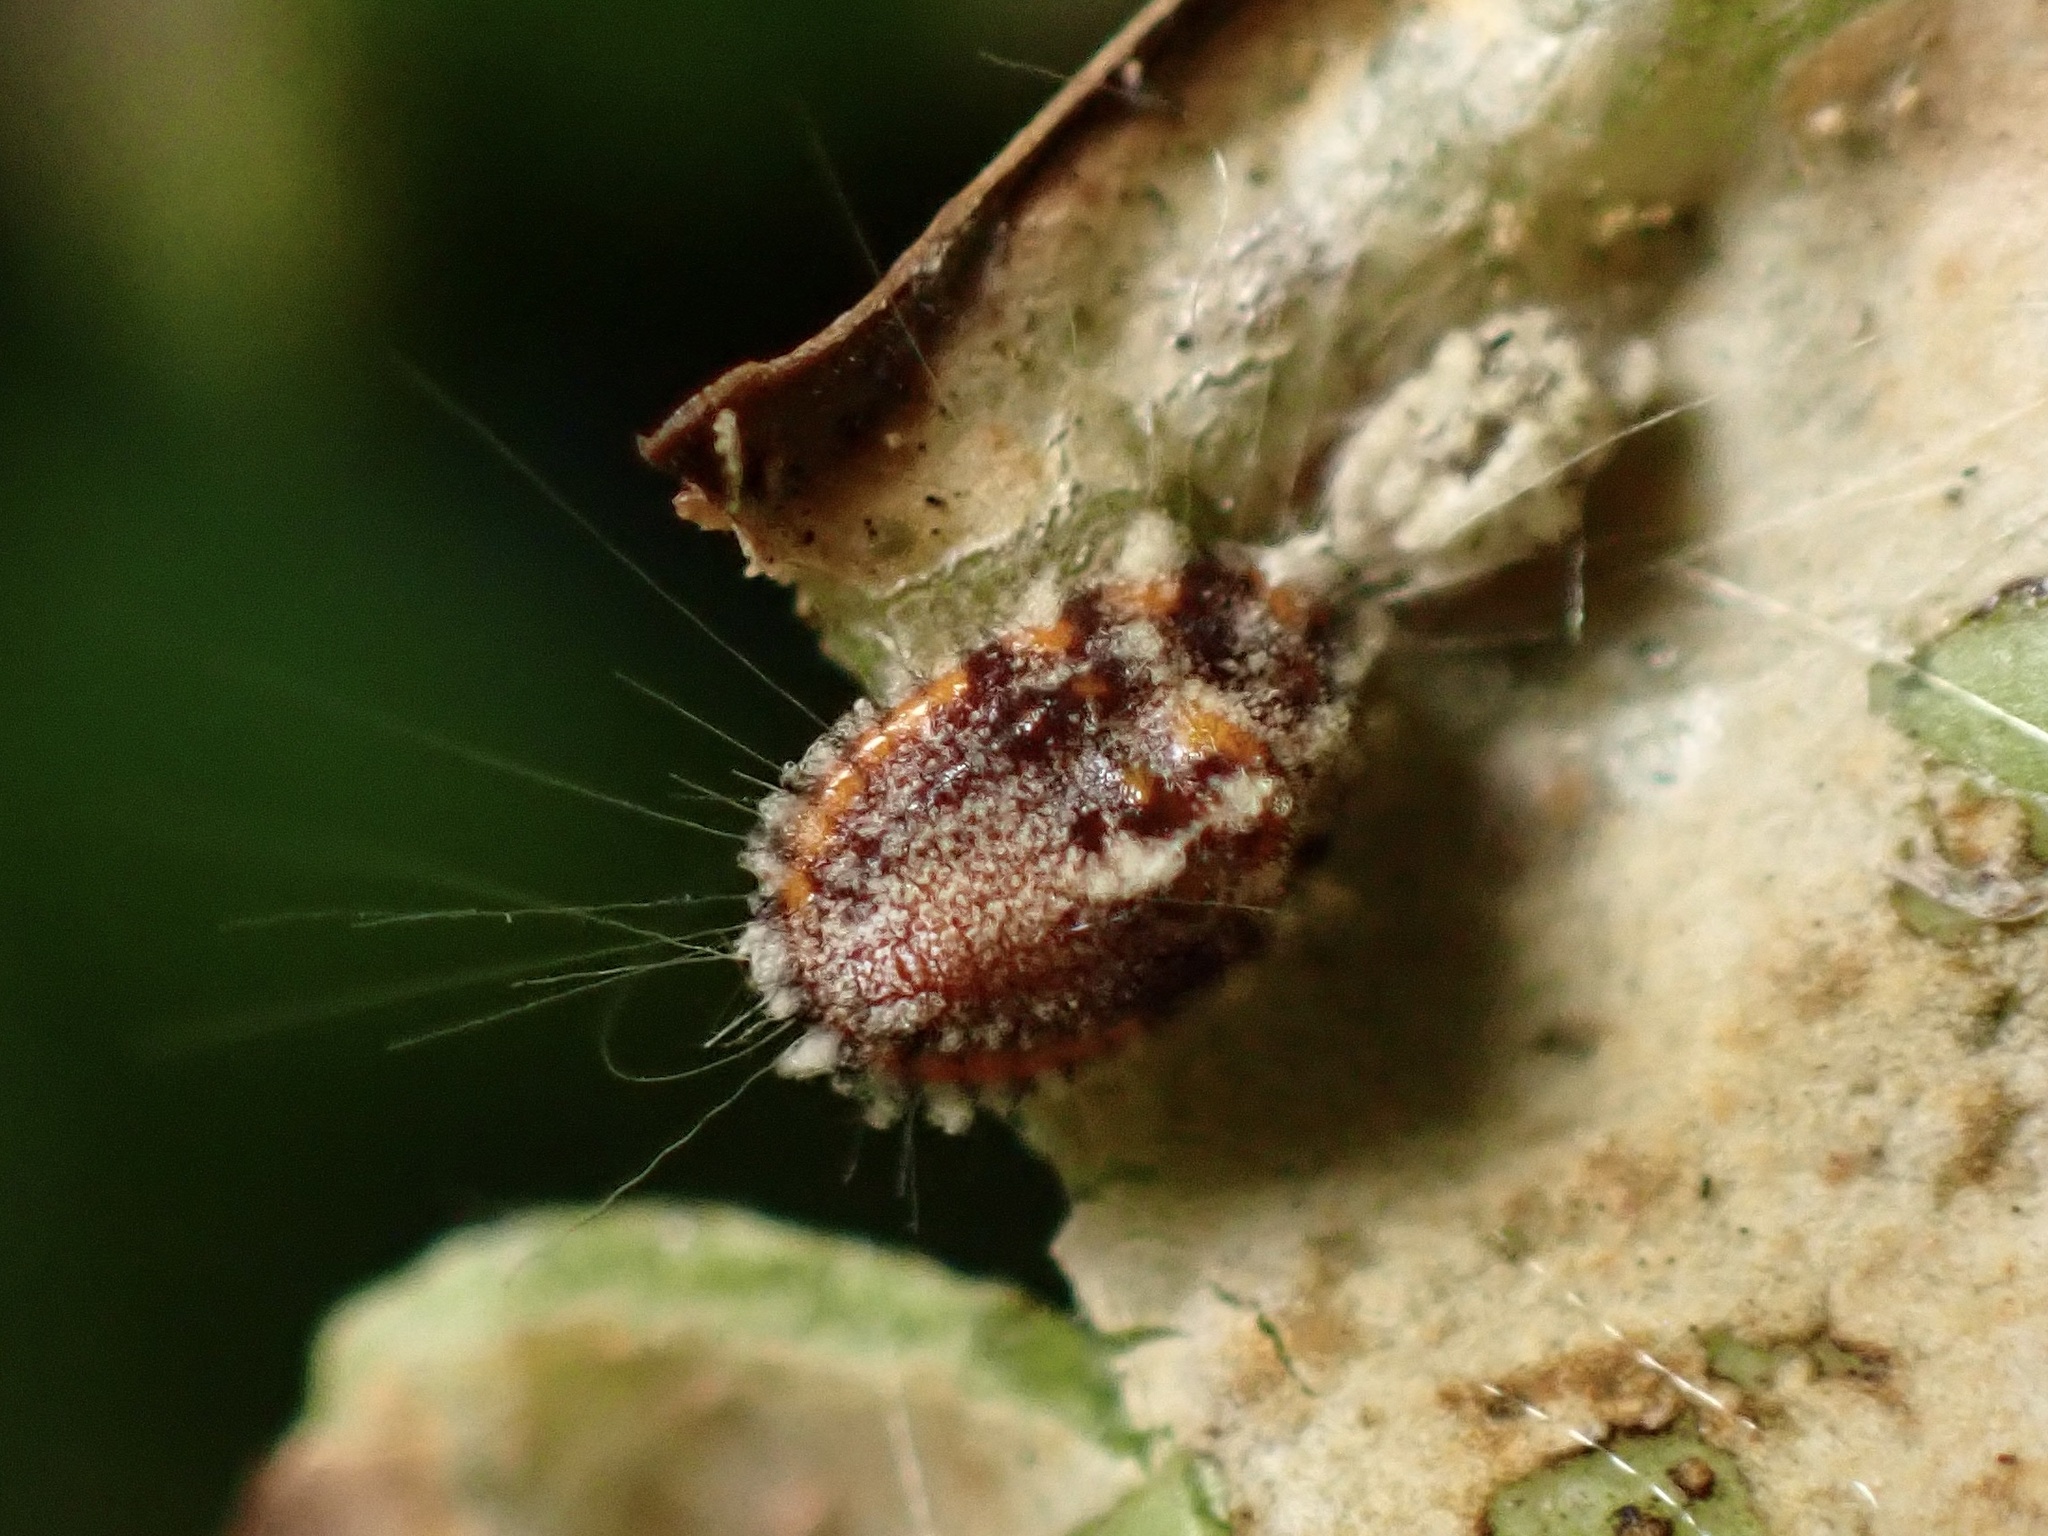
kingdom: Animalia
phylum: Arthropoda
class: Insecta
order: Hemiptera
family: Margarodidae
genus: Icerya
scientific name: Icerya purchasi
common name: Cottony cushion scale
